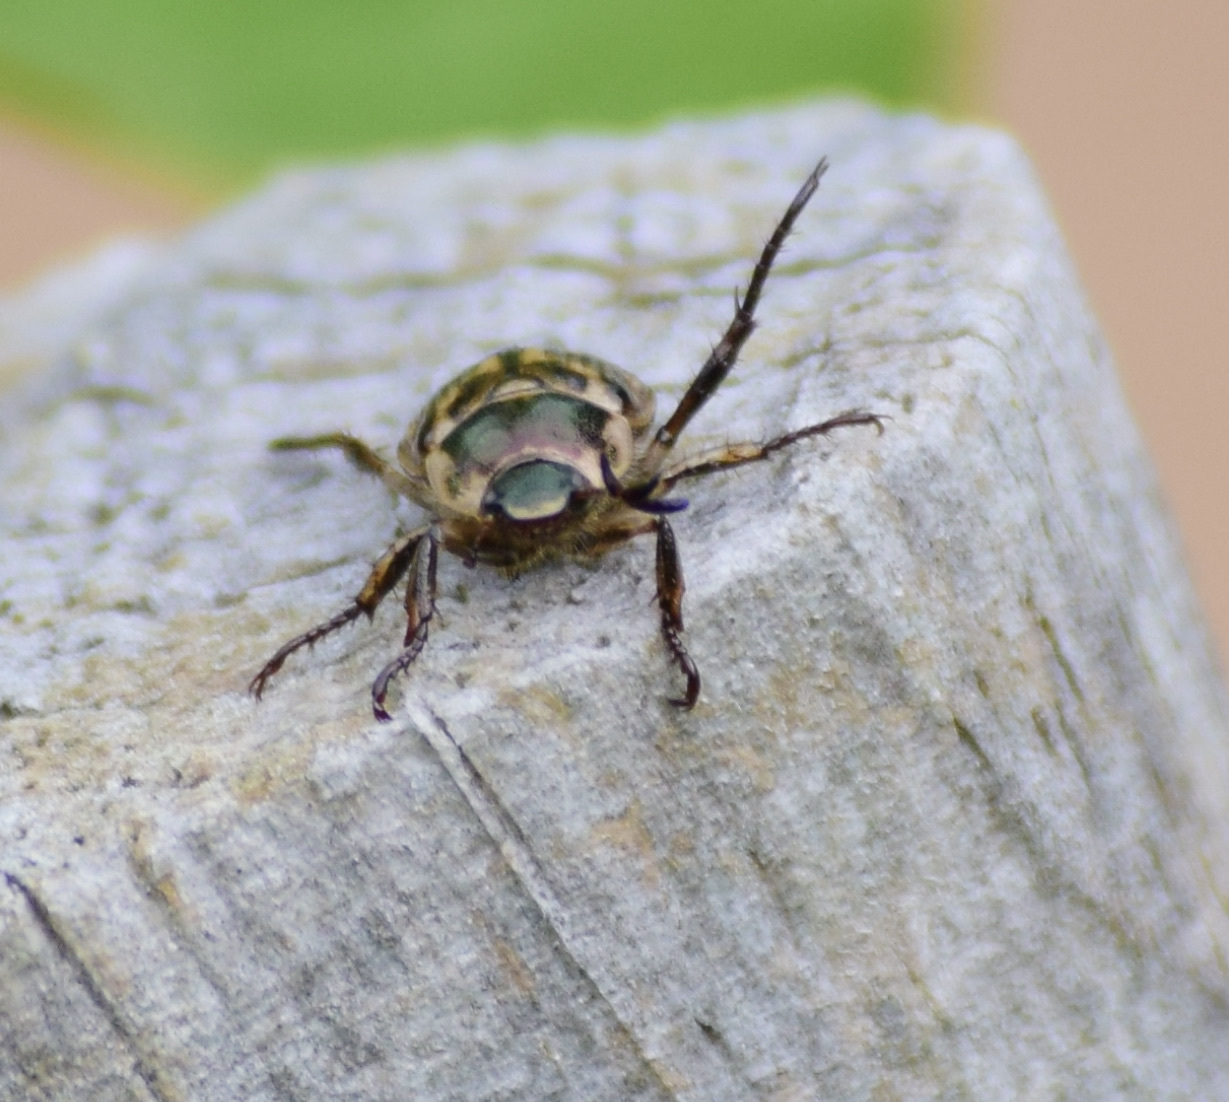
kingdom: Animalia
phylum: Arthropoda
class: Insecta
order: Coleoptera
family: Scarabaeidae
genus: Exomala
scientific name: Exomala orientalis
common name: Oriental beetle
